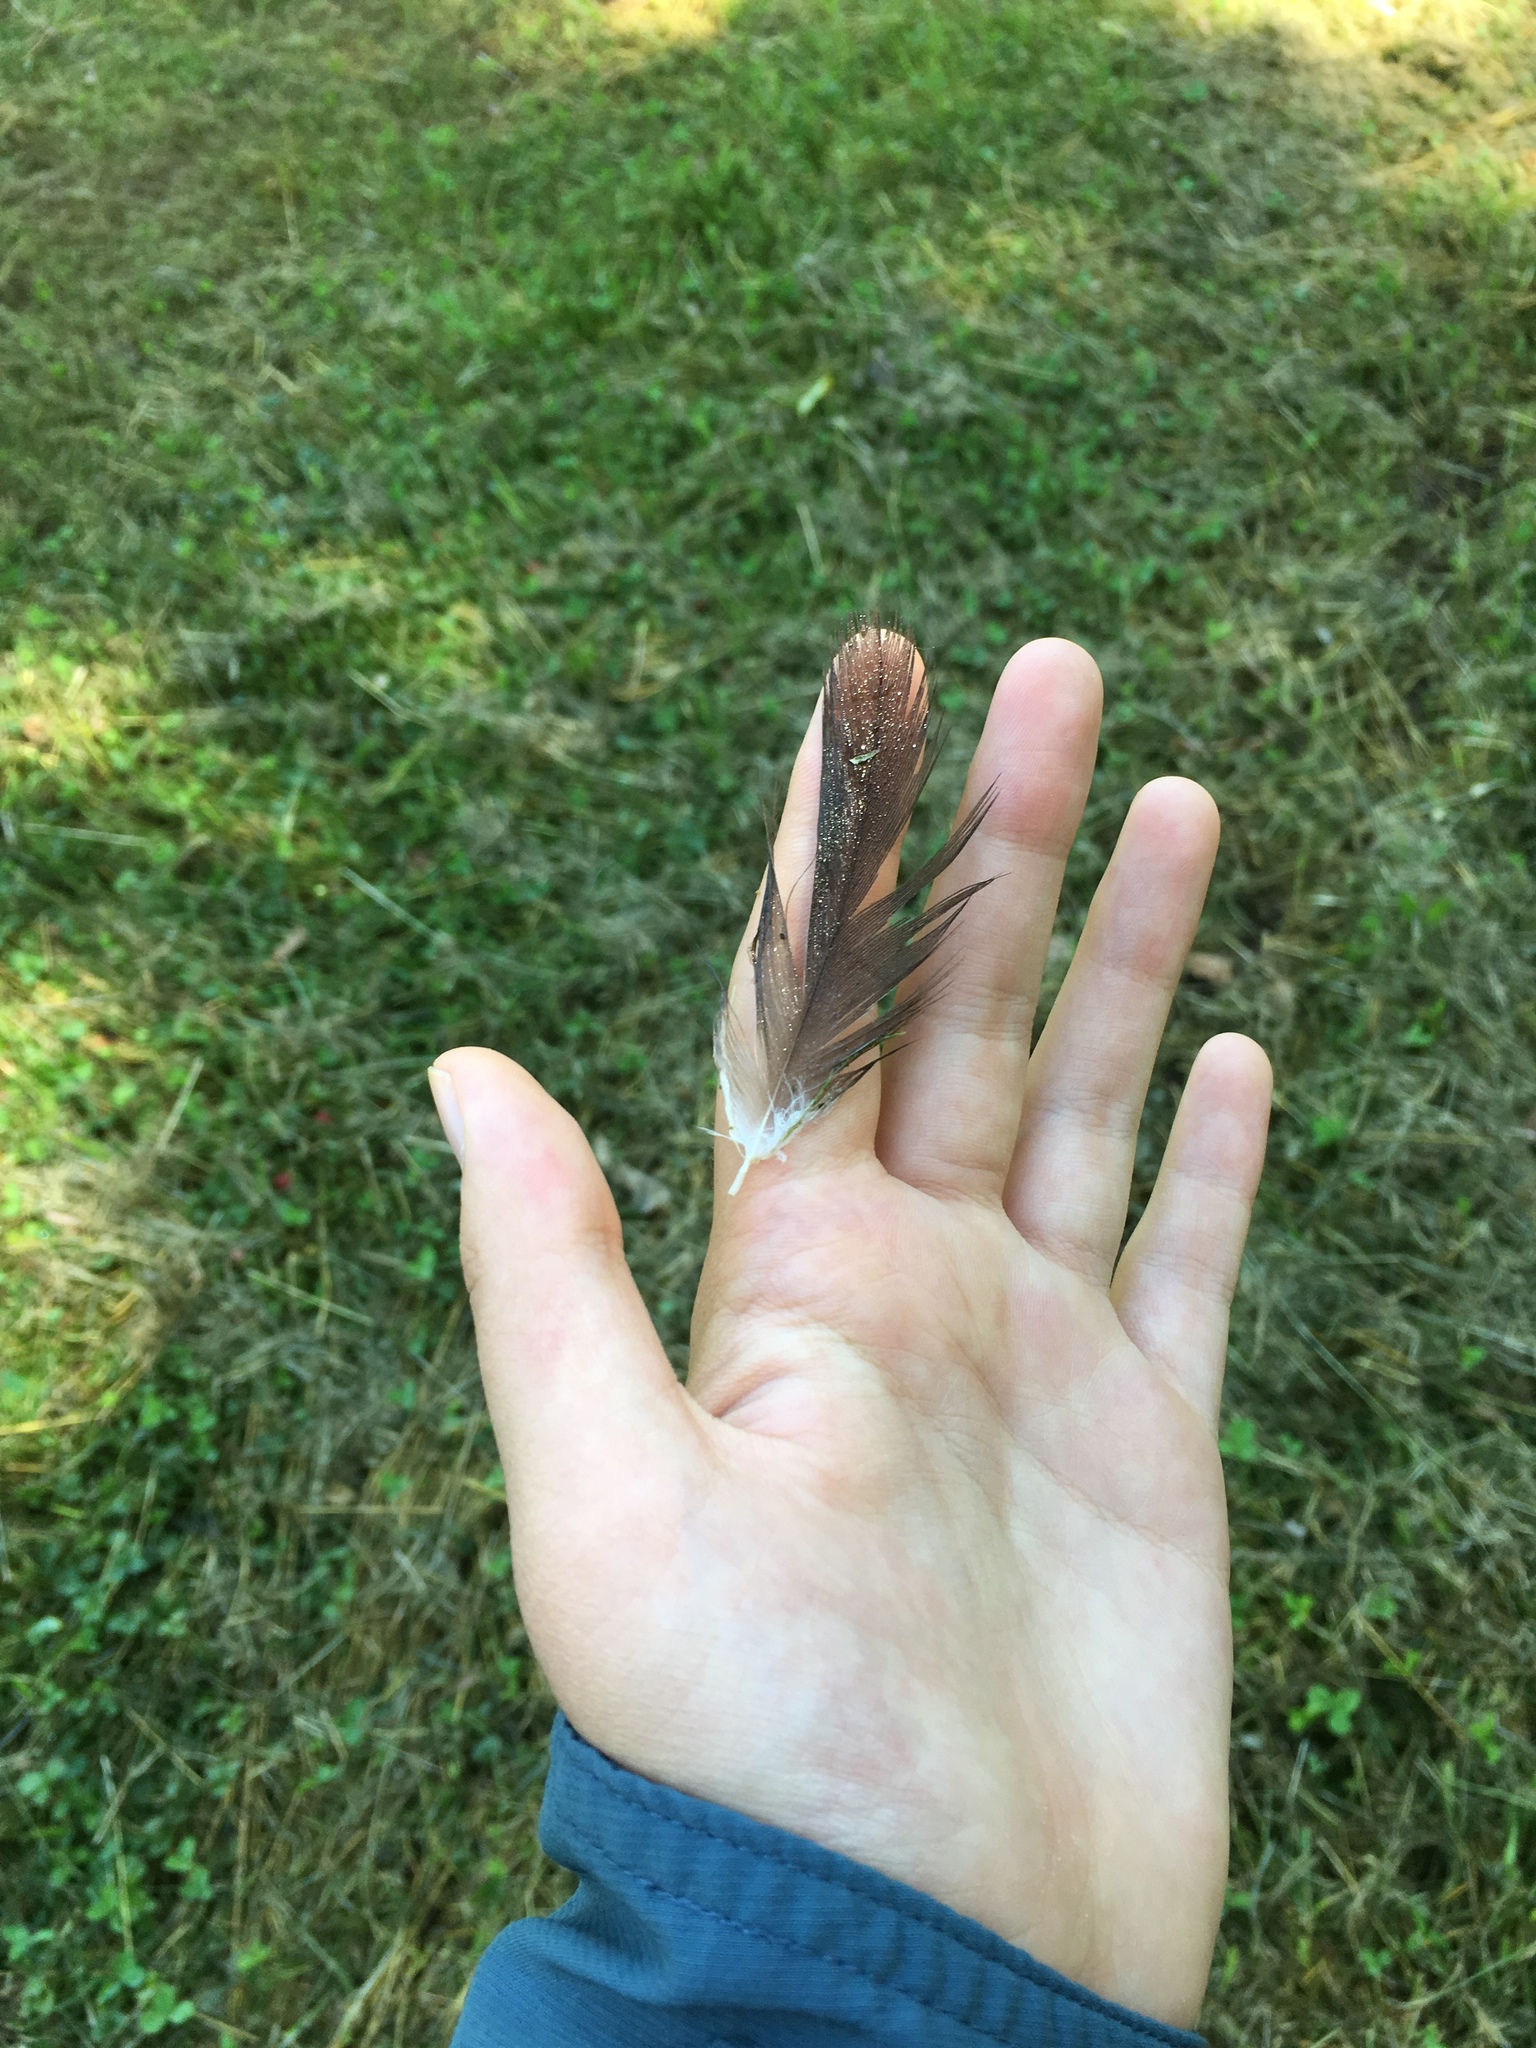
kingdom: Animalia
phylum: Chordata
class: Aves
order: Accipitriformes
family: Cathartidae
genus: Cathartes
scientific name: Cathartes aura
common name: Turkey vulture
